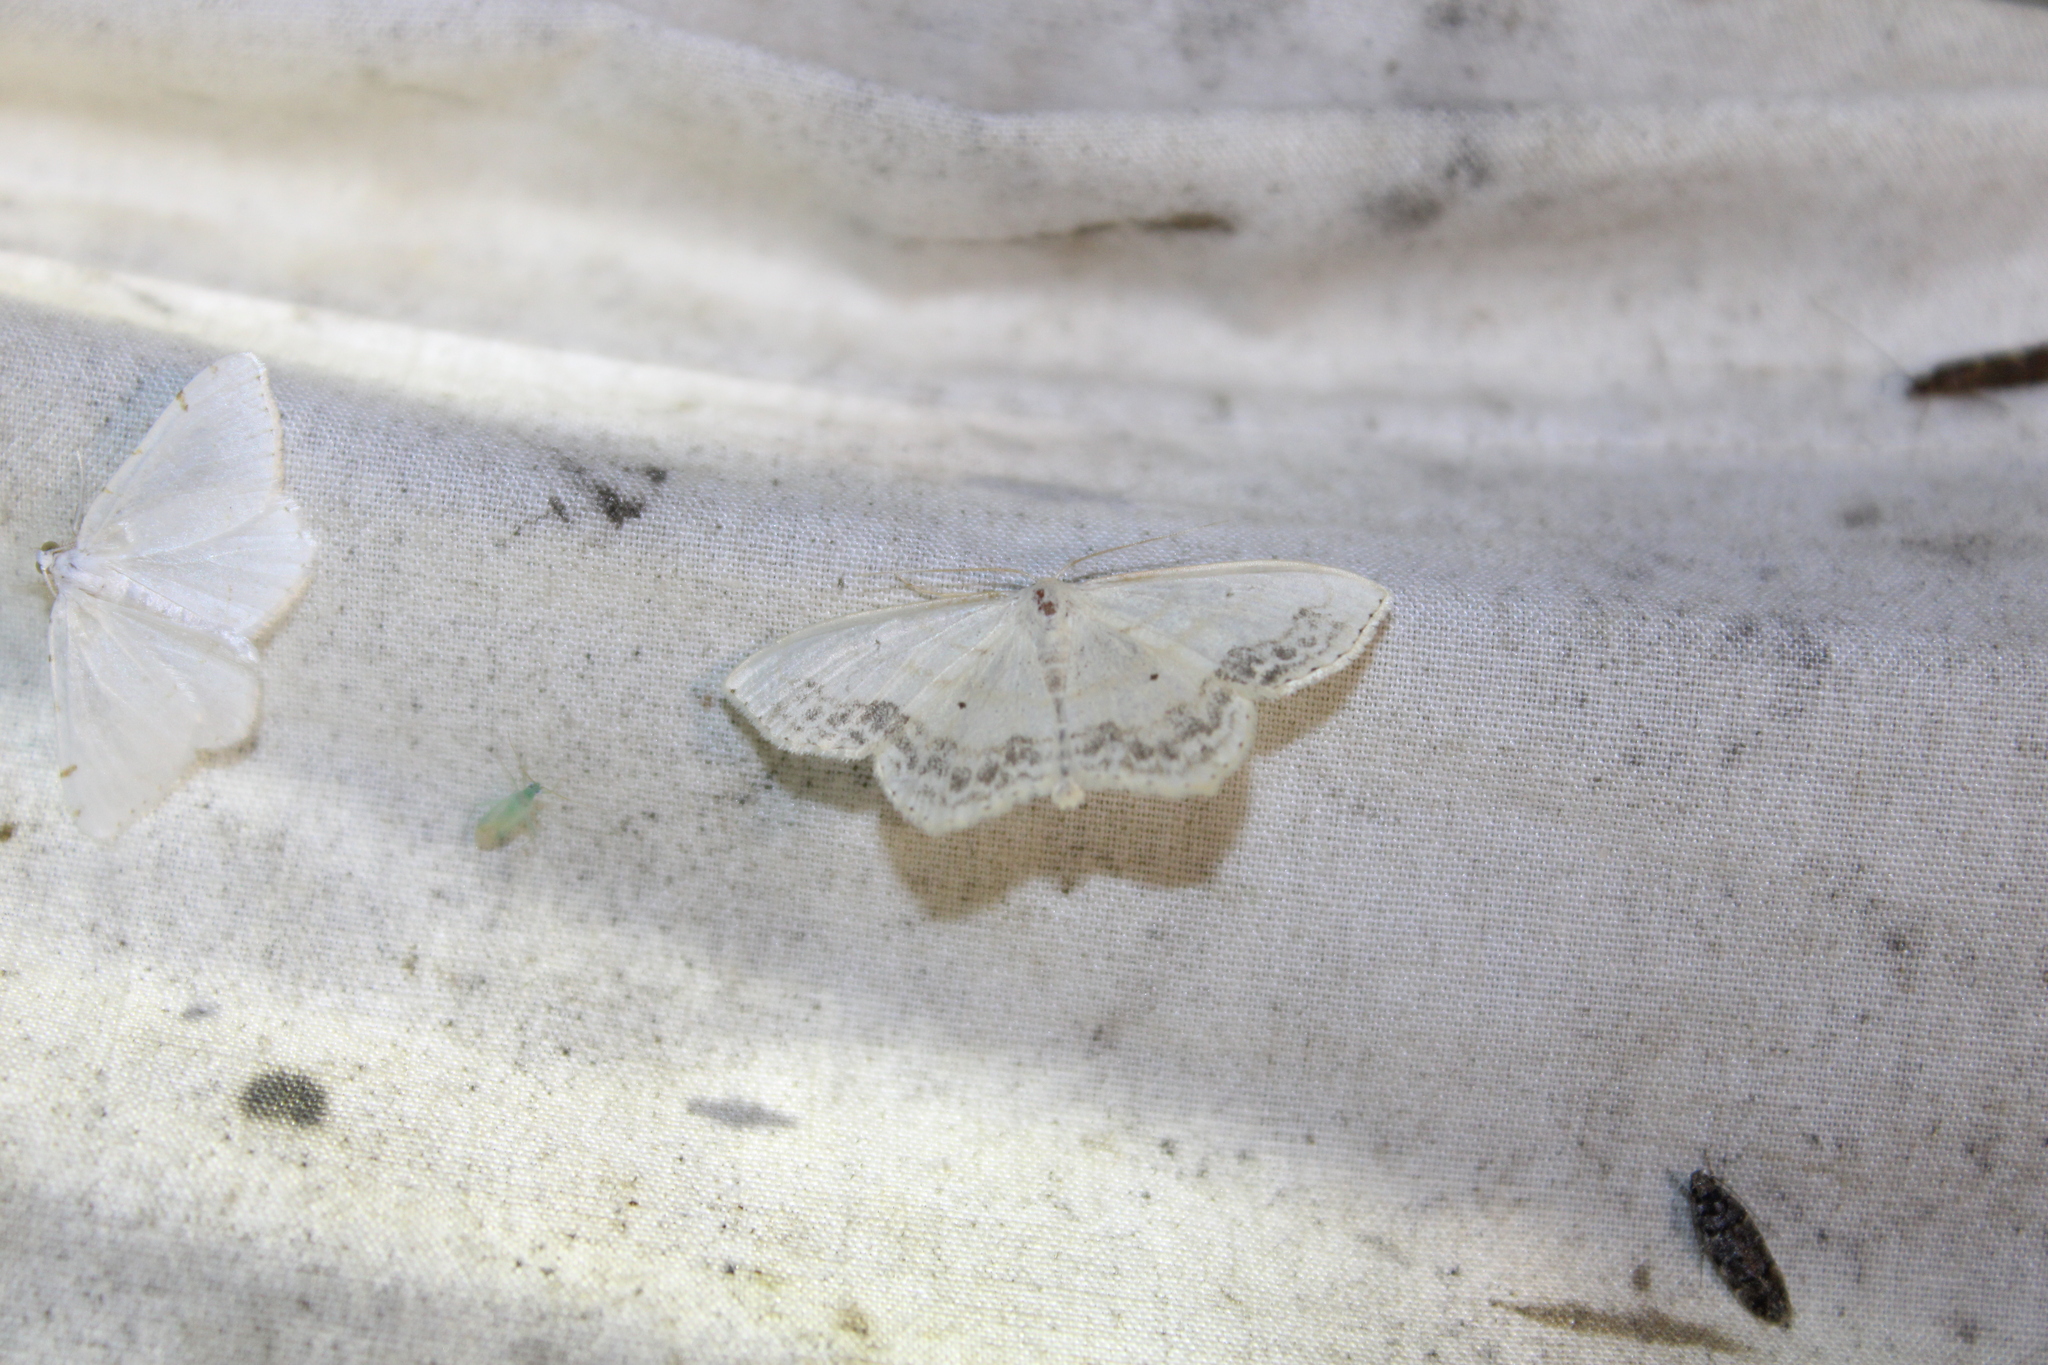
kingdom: Animalia
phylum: Arthropoda
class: Insecta
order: Lepidoptera
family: Geometridae
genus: Scopula
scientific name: Scopula limboundata
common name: Large lace border
